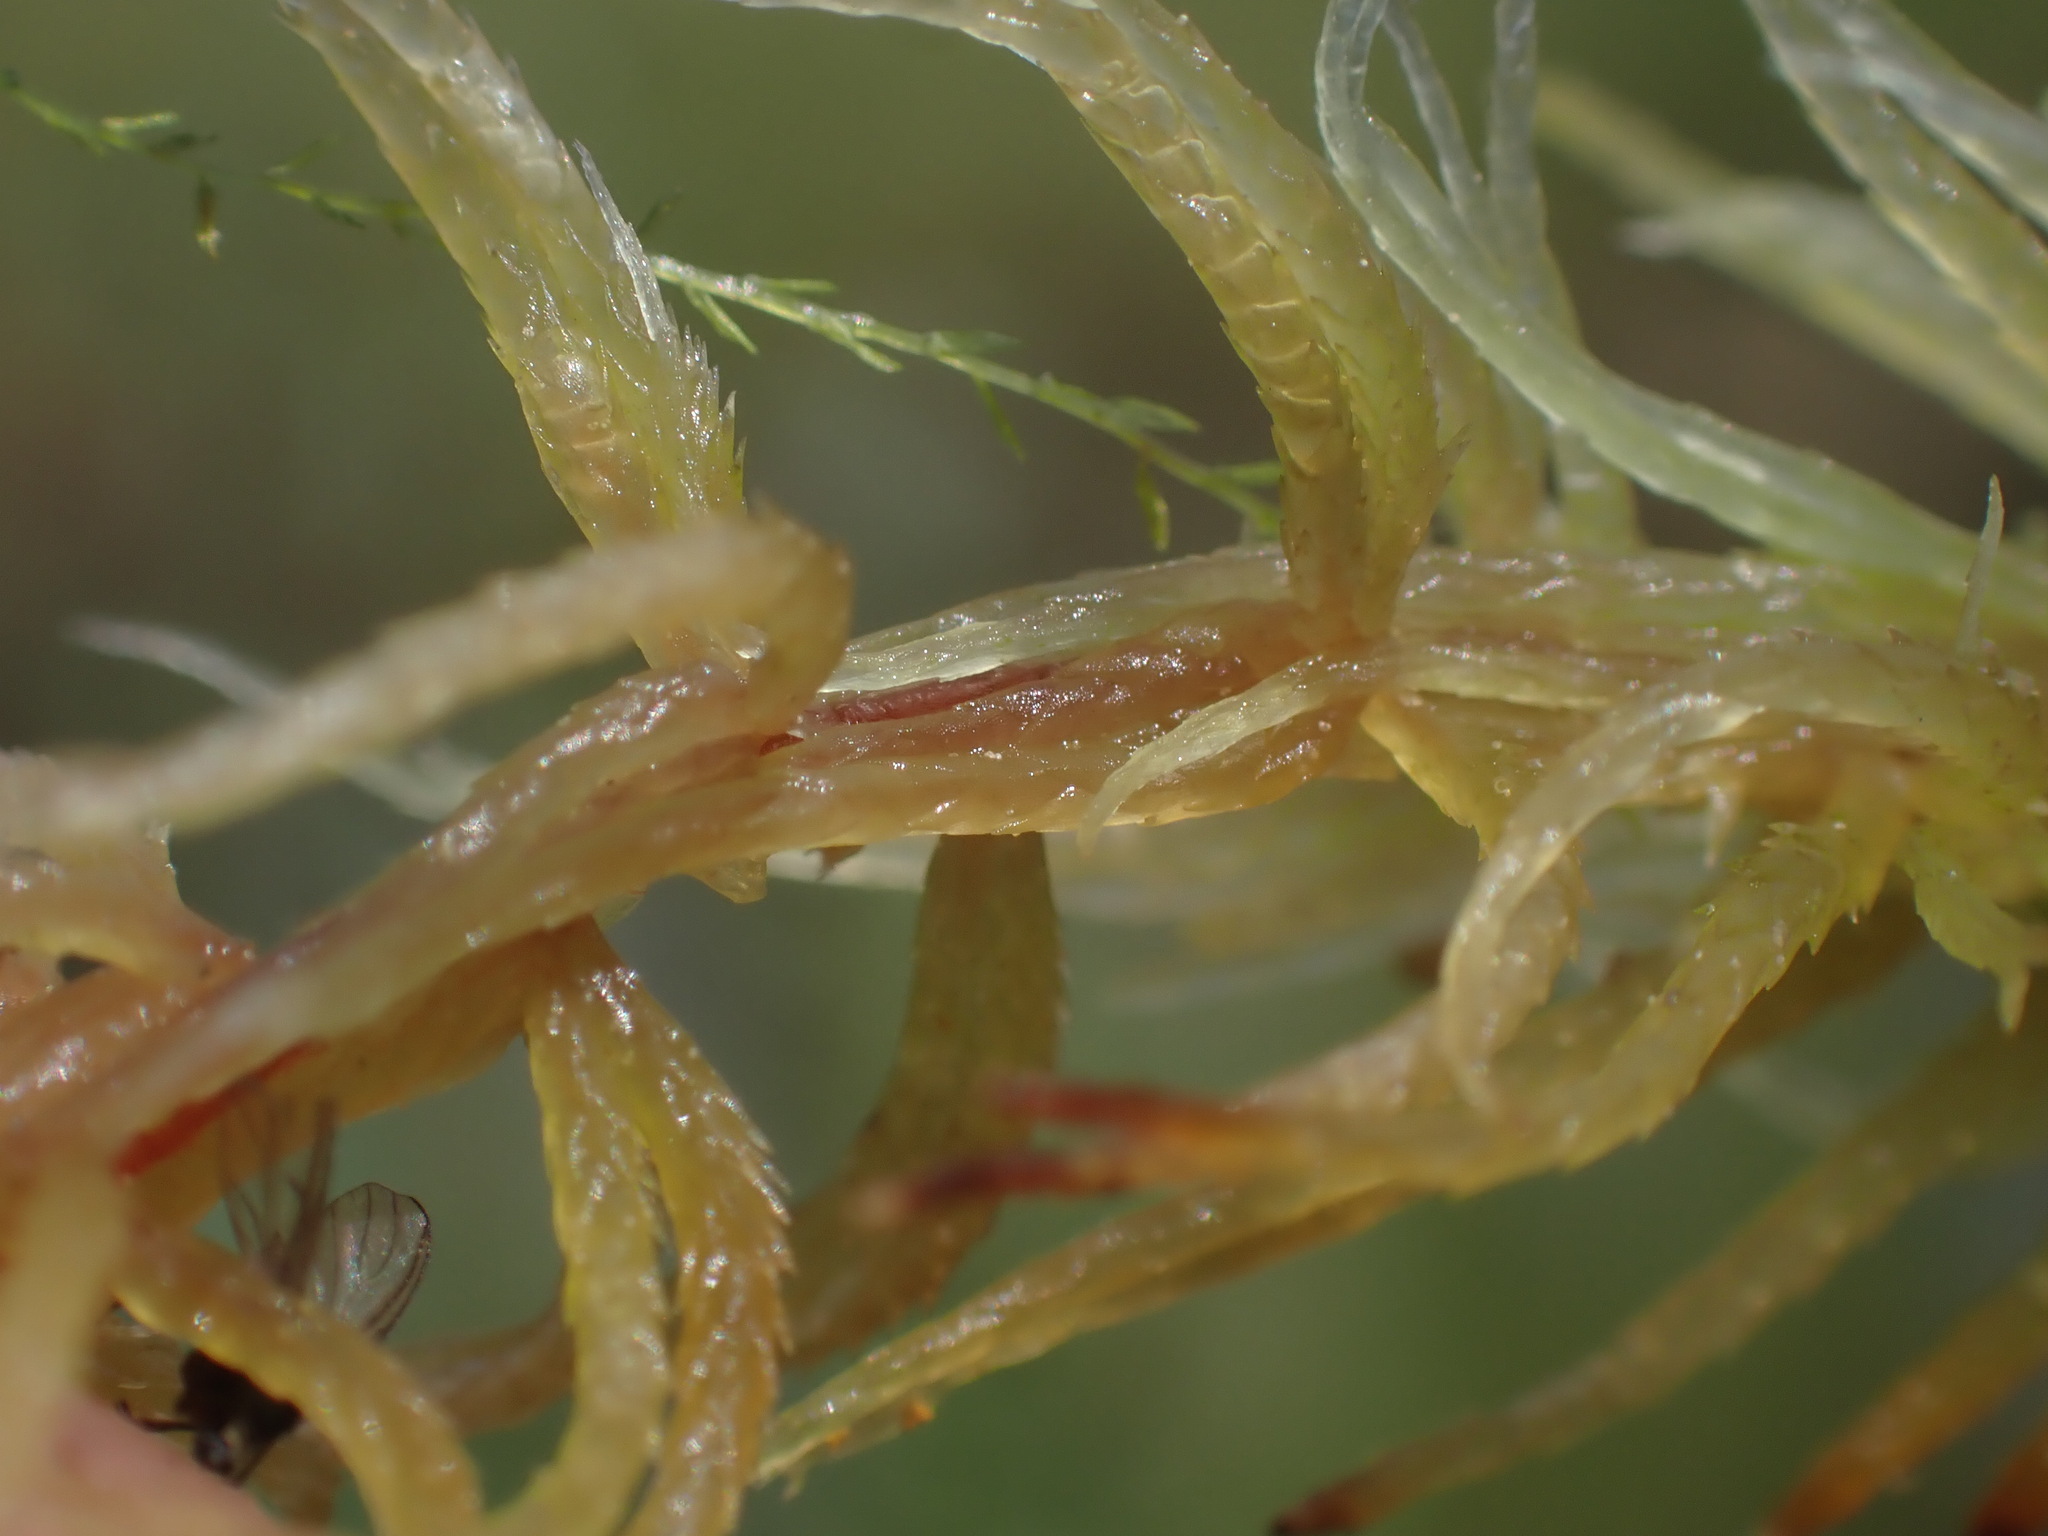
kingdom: Plantae
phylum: Bryophyta
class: Sphagnopsida
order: Sphagnales
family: Sphagnaceae
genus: Sphagnum
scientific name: Sphagnum teres
